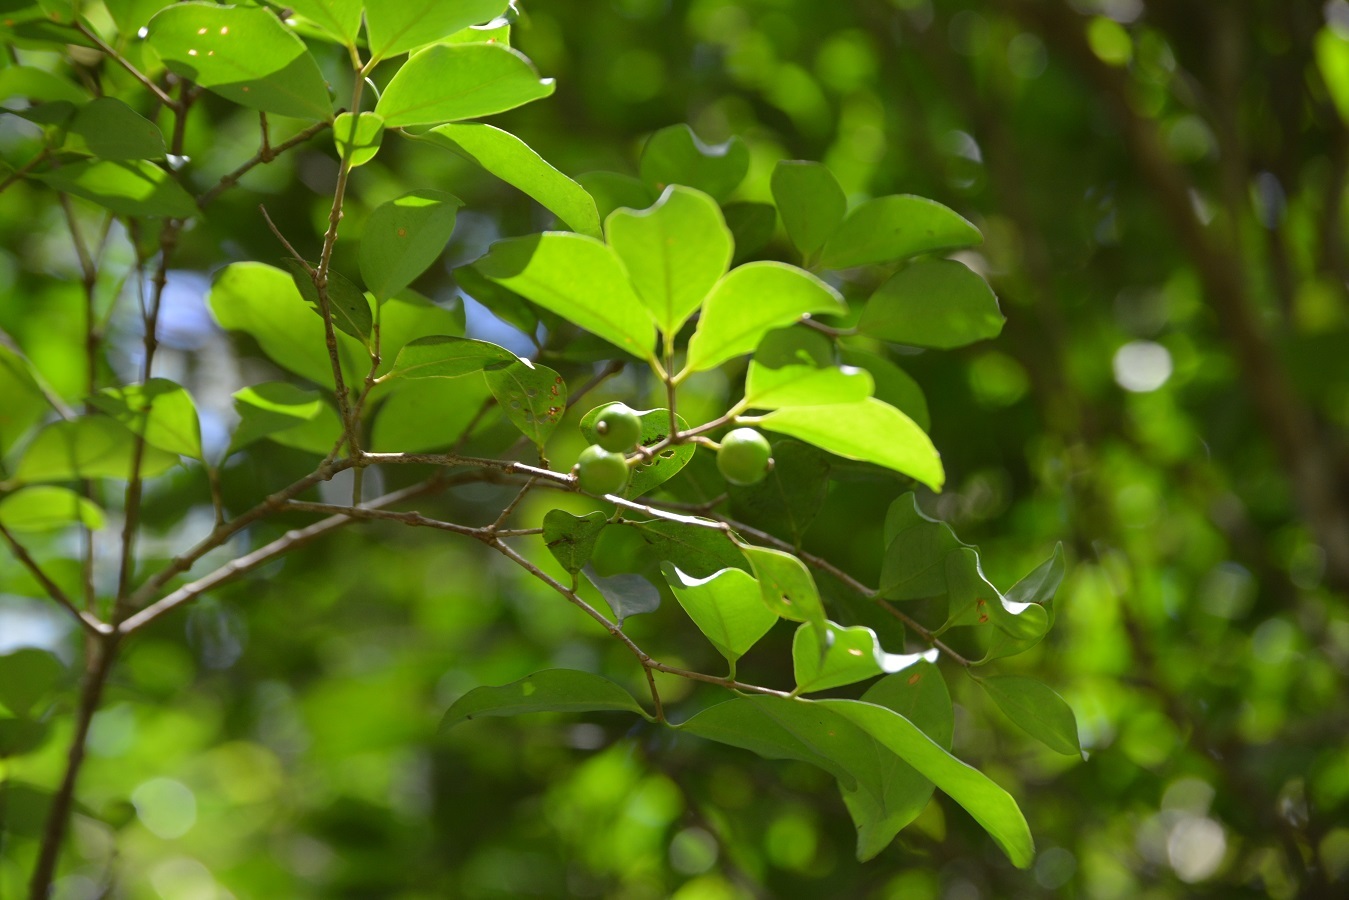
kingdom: Plantae
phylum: Tracheophyta
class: Magnoliopsida
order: Myrtales
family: Myrtaceae
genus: Eugenia
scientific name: Eugenia capuli
